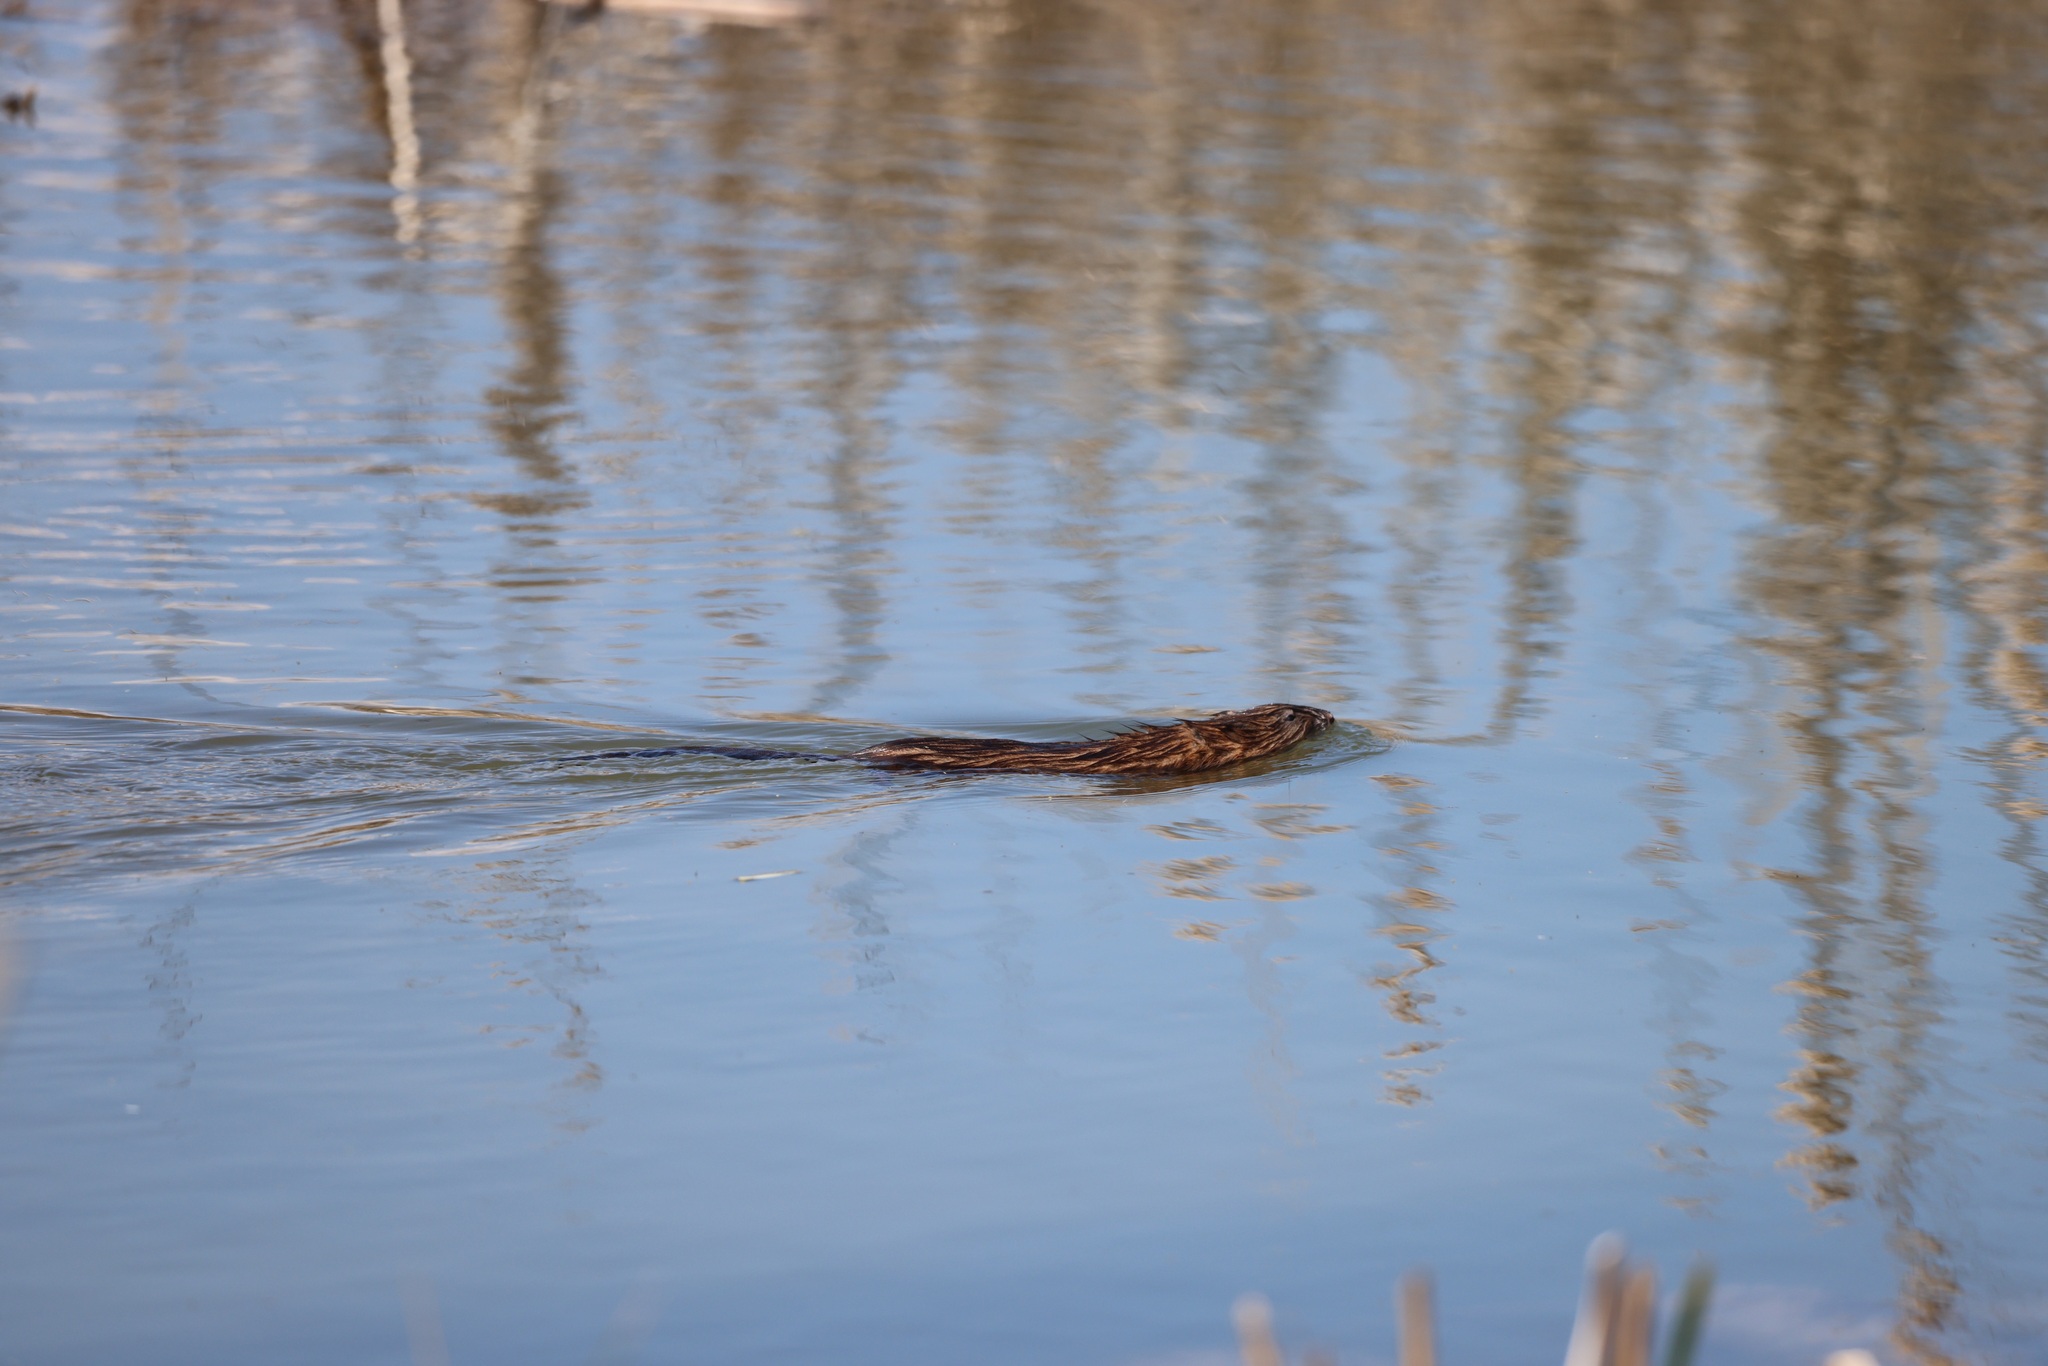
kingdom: Animalia
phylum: Chordata
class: Mammalia
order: Rodentia
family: Cricetidae
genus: Ondatra
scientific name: Ondatra zibethicus
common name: Muskrat
